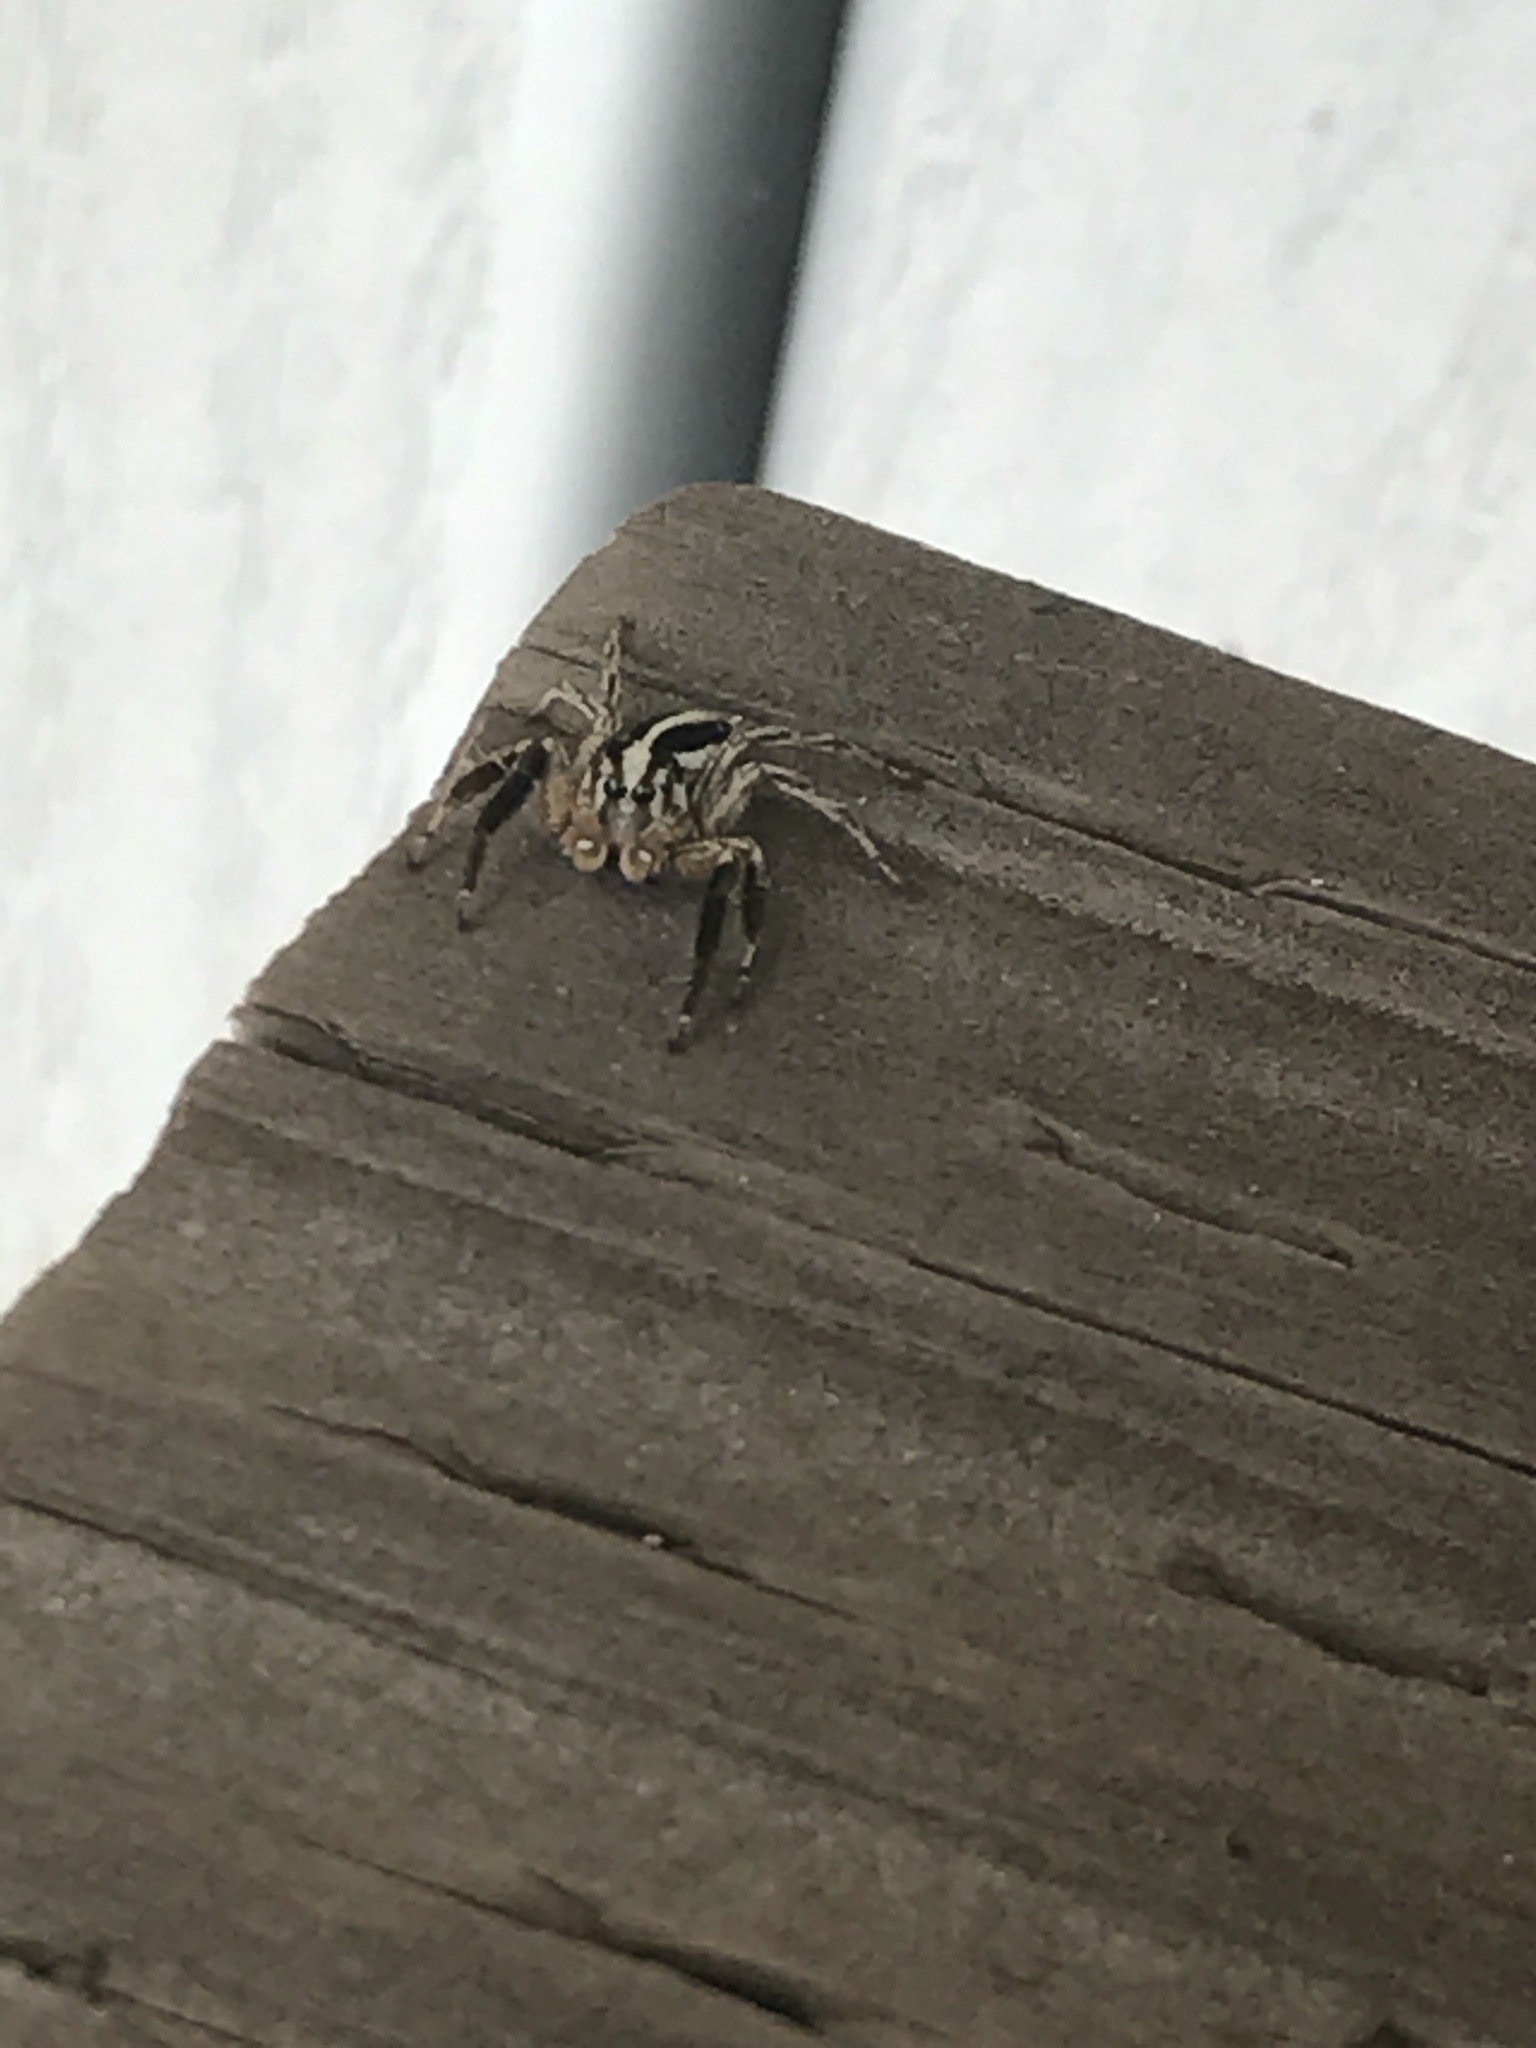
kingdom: Animalia
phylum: Arthropoda
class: Arachnida
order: Araneae
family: Salticidae
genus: Plexippus
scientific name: Plexippus paykulli
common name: Pantropical jumper
